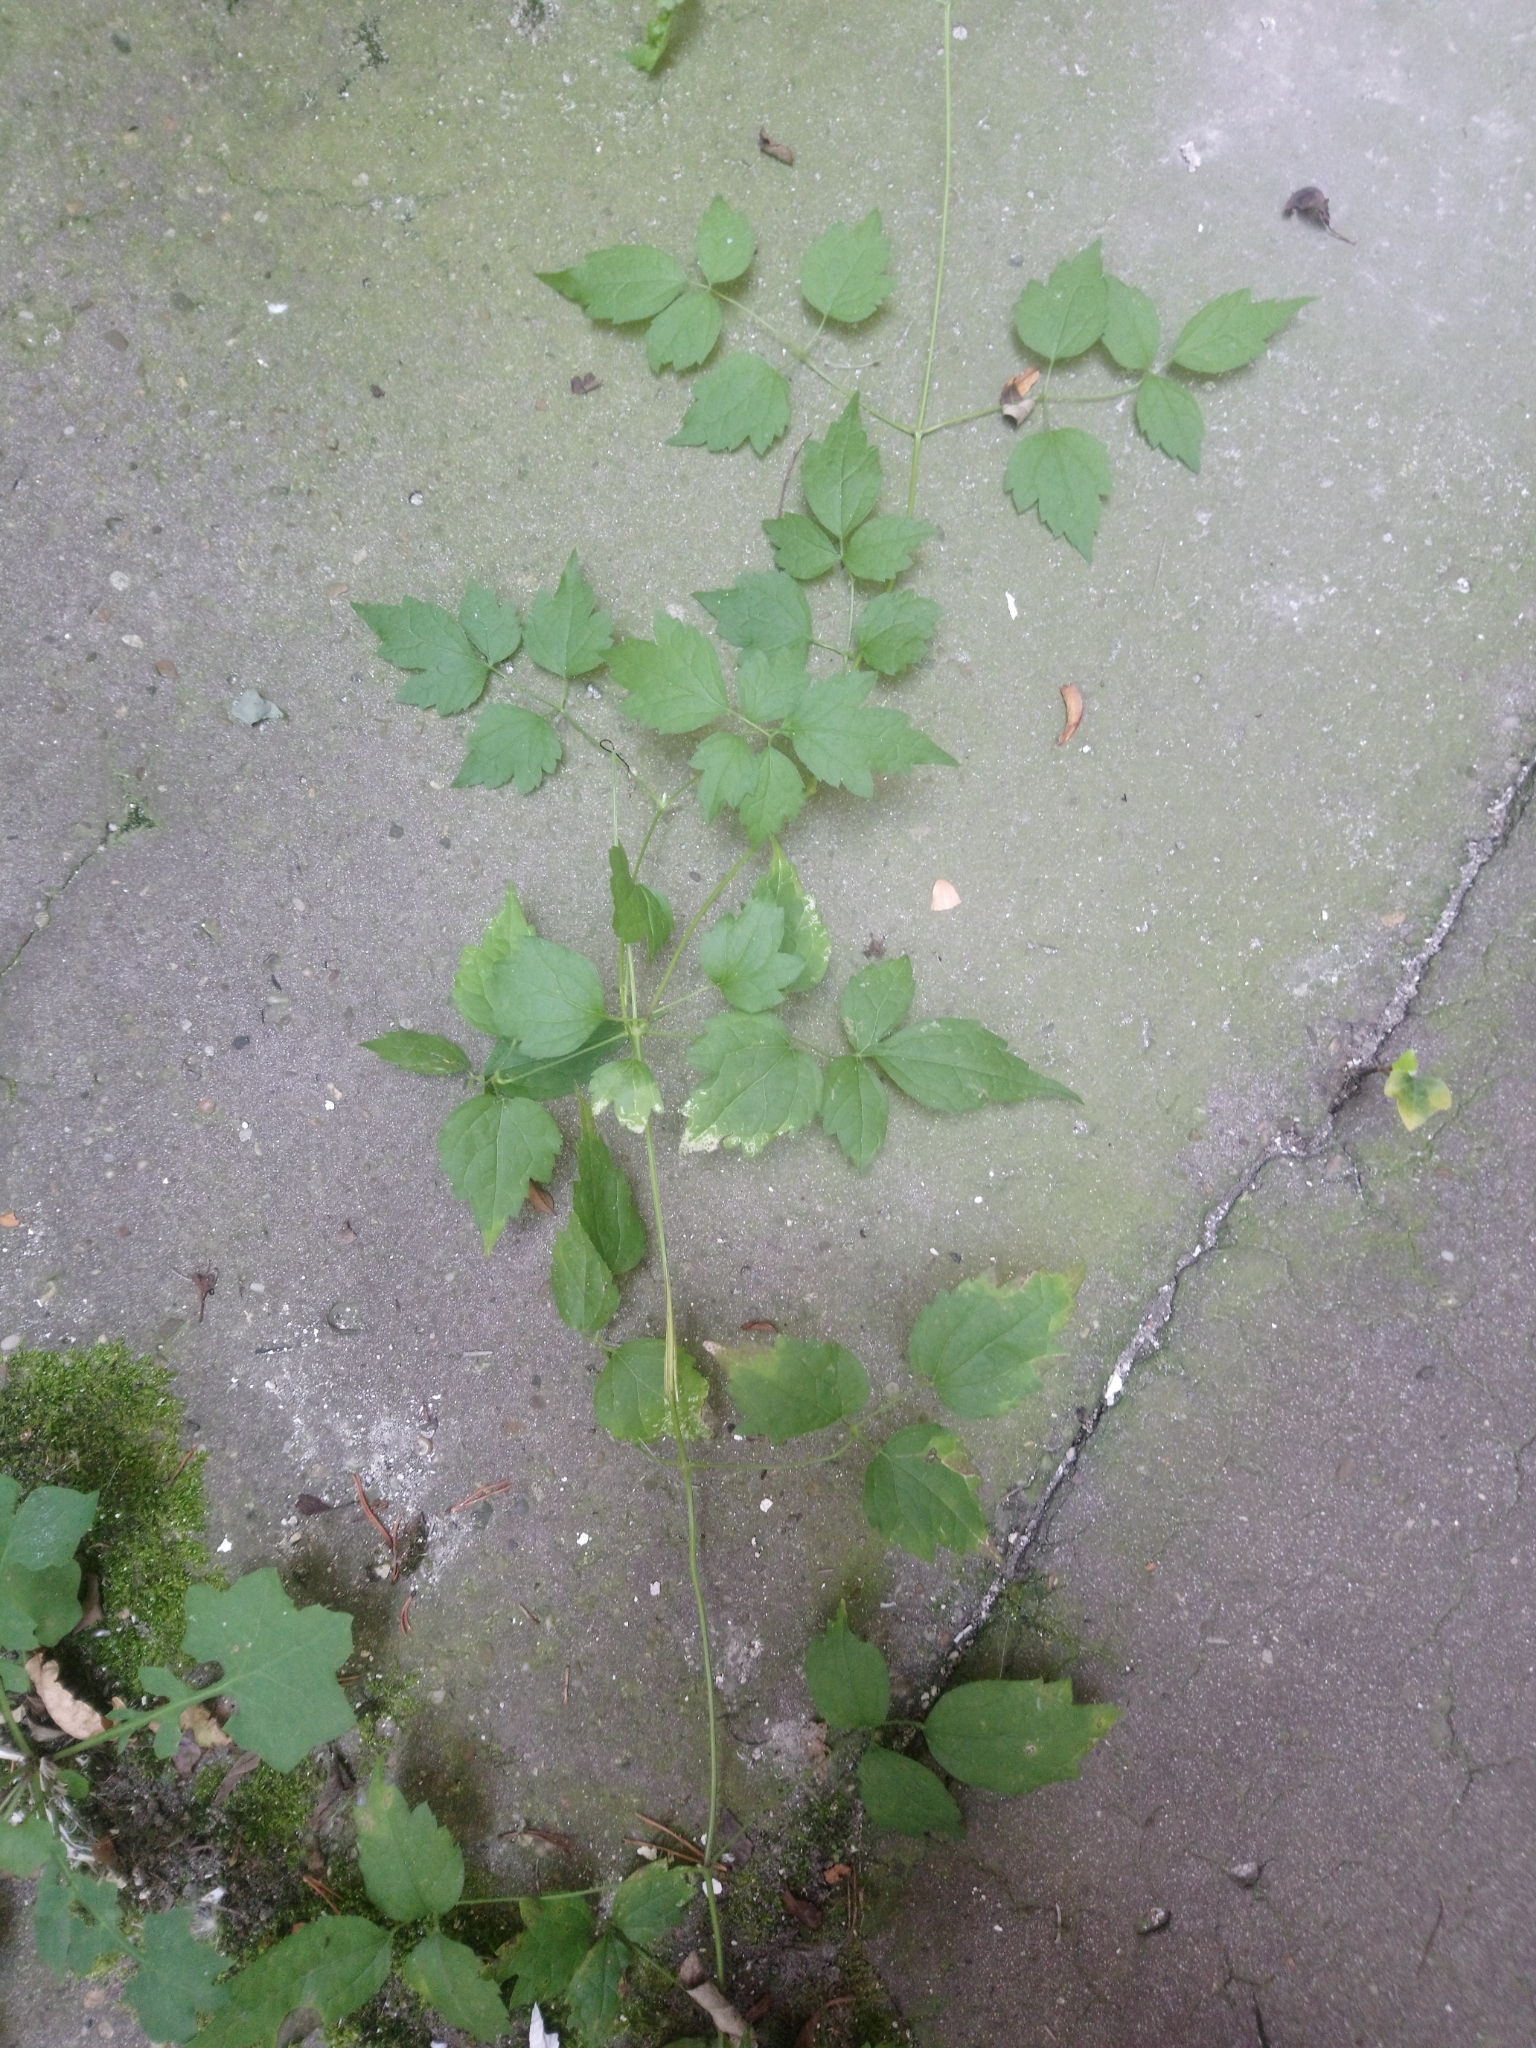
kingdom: Plantae
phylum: Tracheophyta
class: Magnoliopsida
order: Ranunculales
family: Ranunculaceae
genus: Clematis
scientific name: Clematis vitalba
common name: Evergreen clematis
